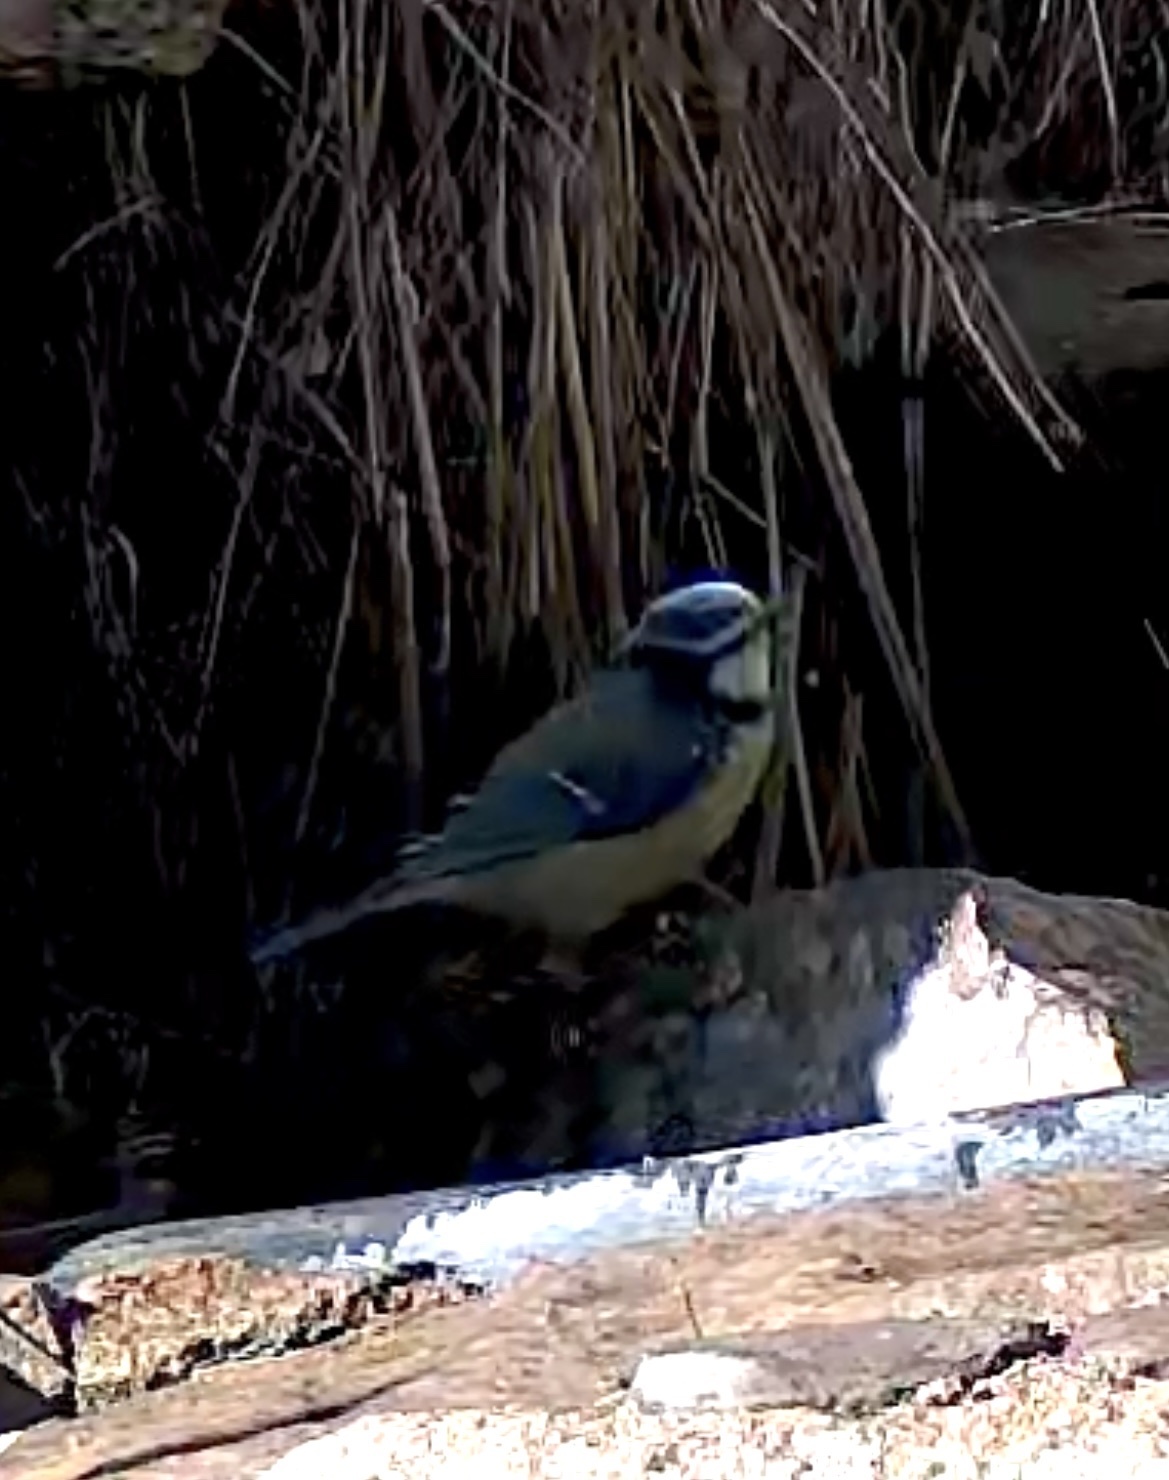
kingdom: Animalia
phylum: Chordata
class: Aves
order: Passeriformes
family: Paridae
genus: Cyanistes
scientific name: Cyanistes caeruleus
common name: Eurasian blue tit
